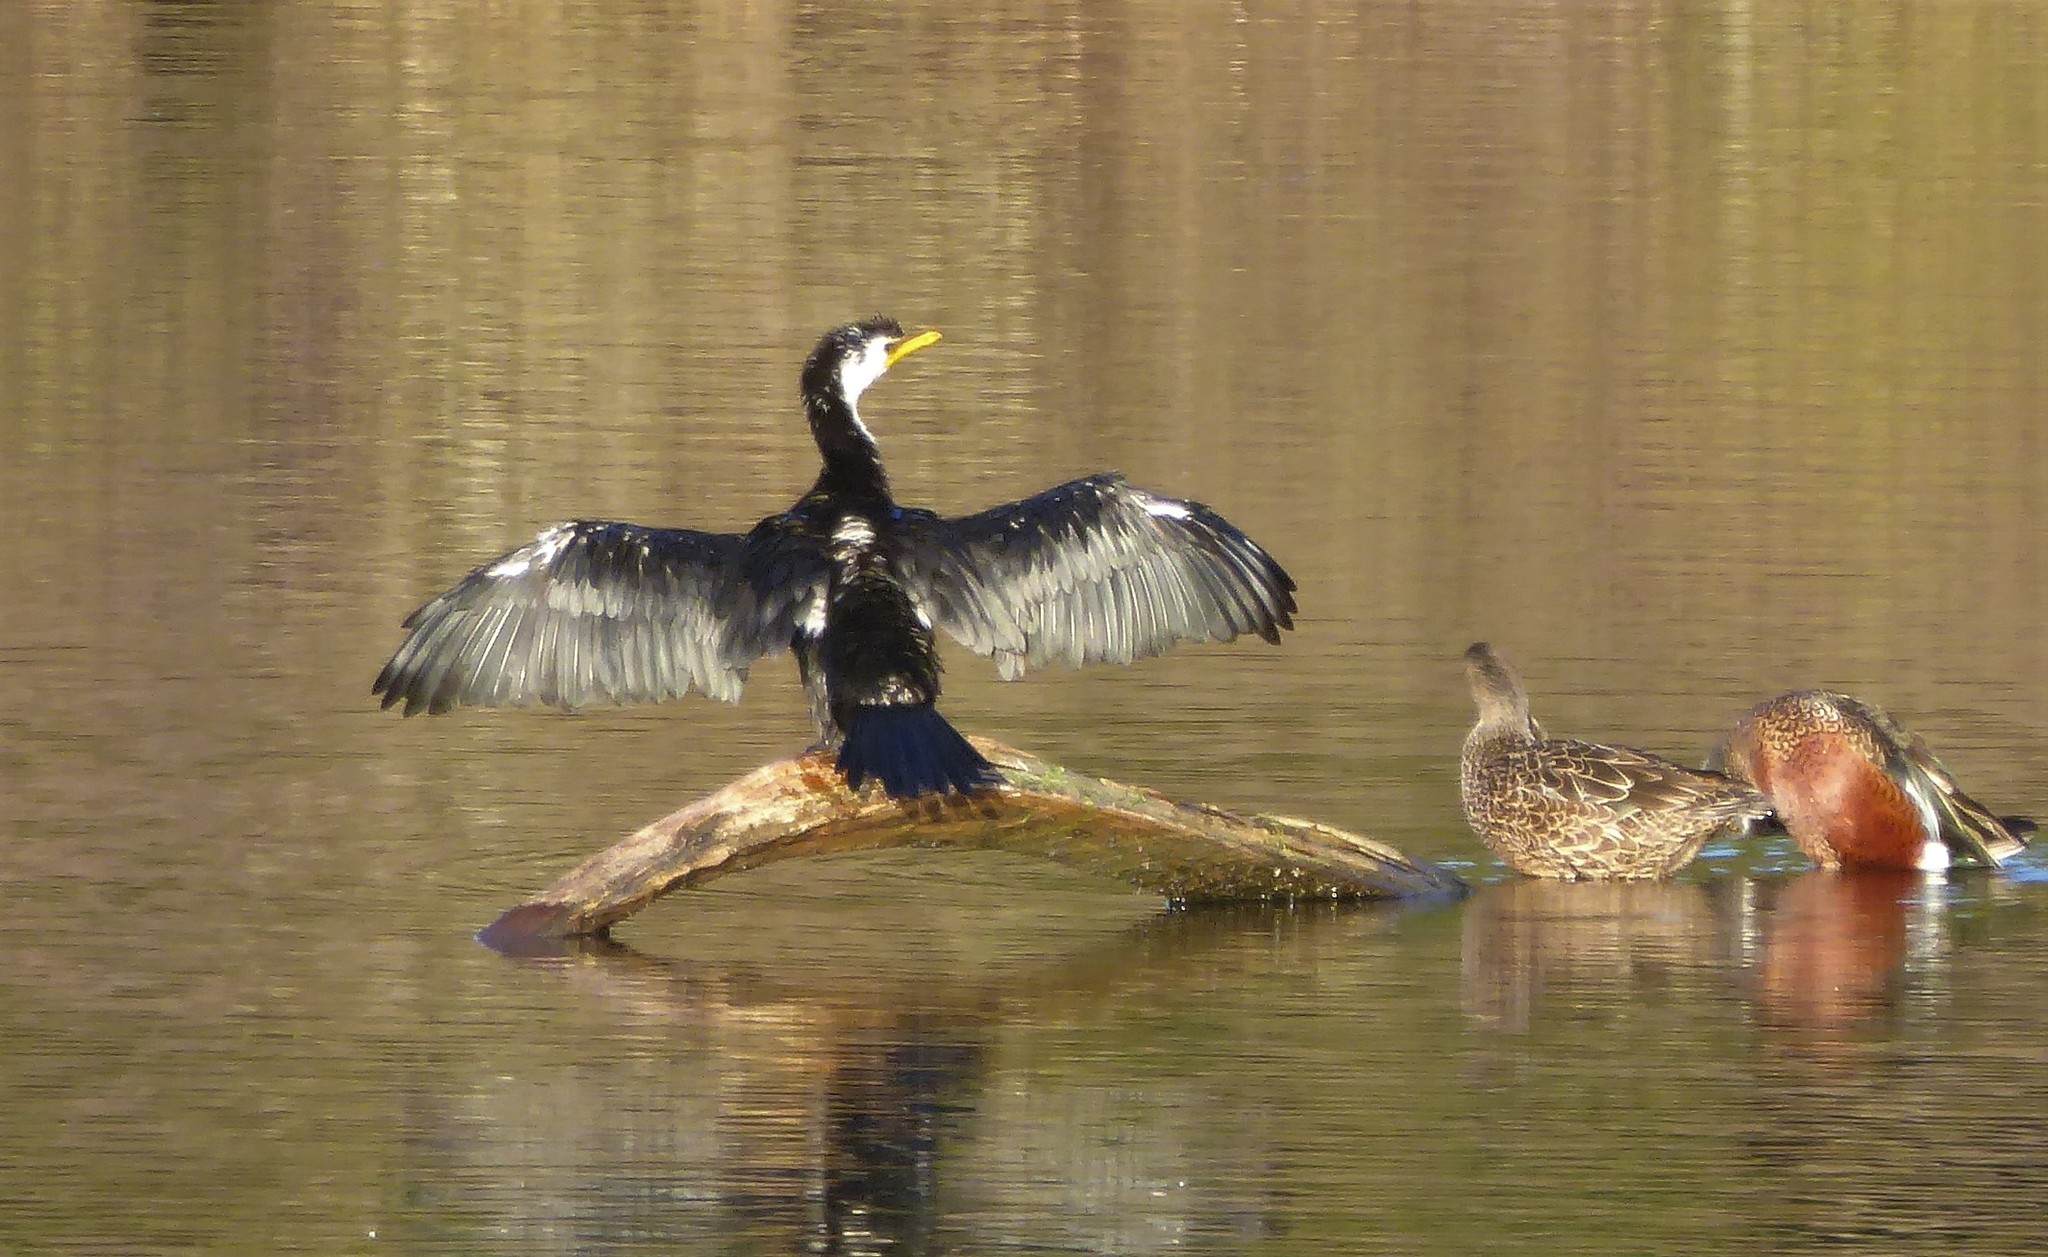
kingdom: Animalia
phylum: Chordata
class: Aves
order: Suliformes
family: Phalacrocoracidae
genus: Microcarbo
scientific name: Microcarbo melanoleucos
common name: Little pied cormorant
